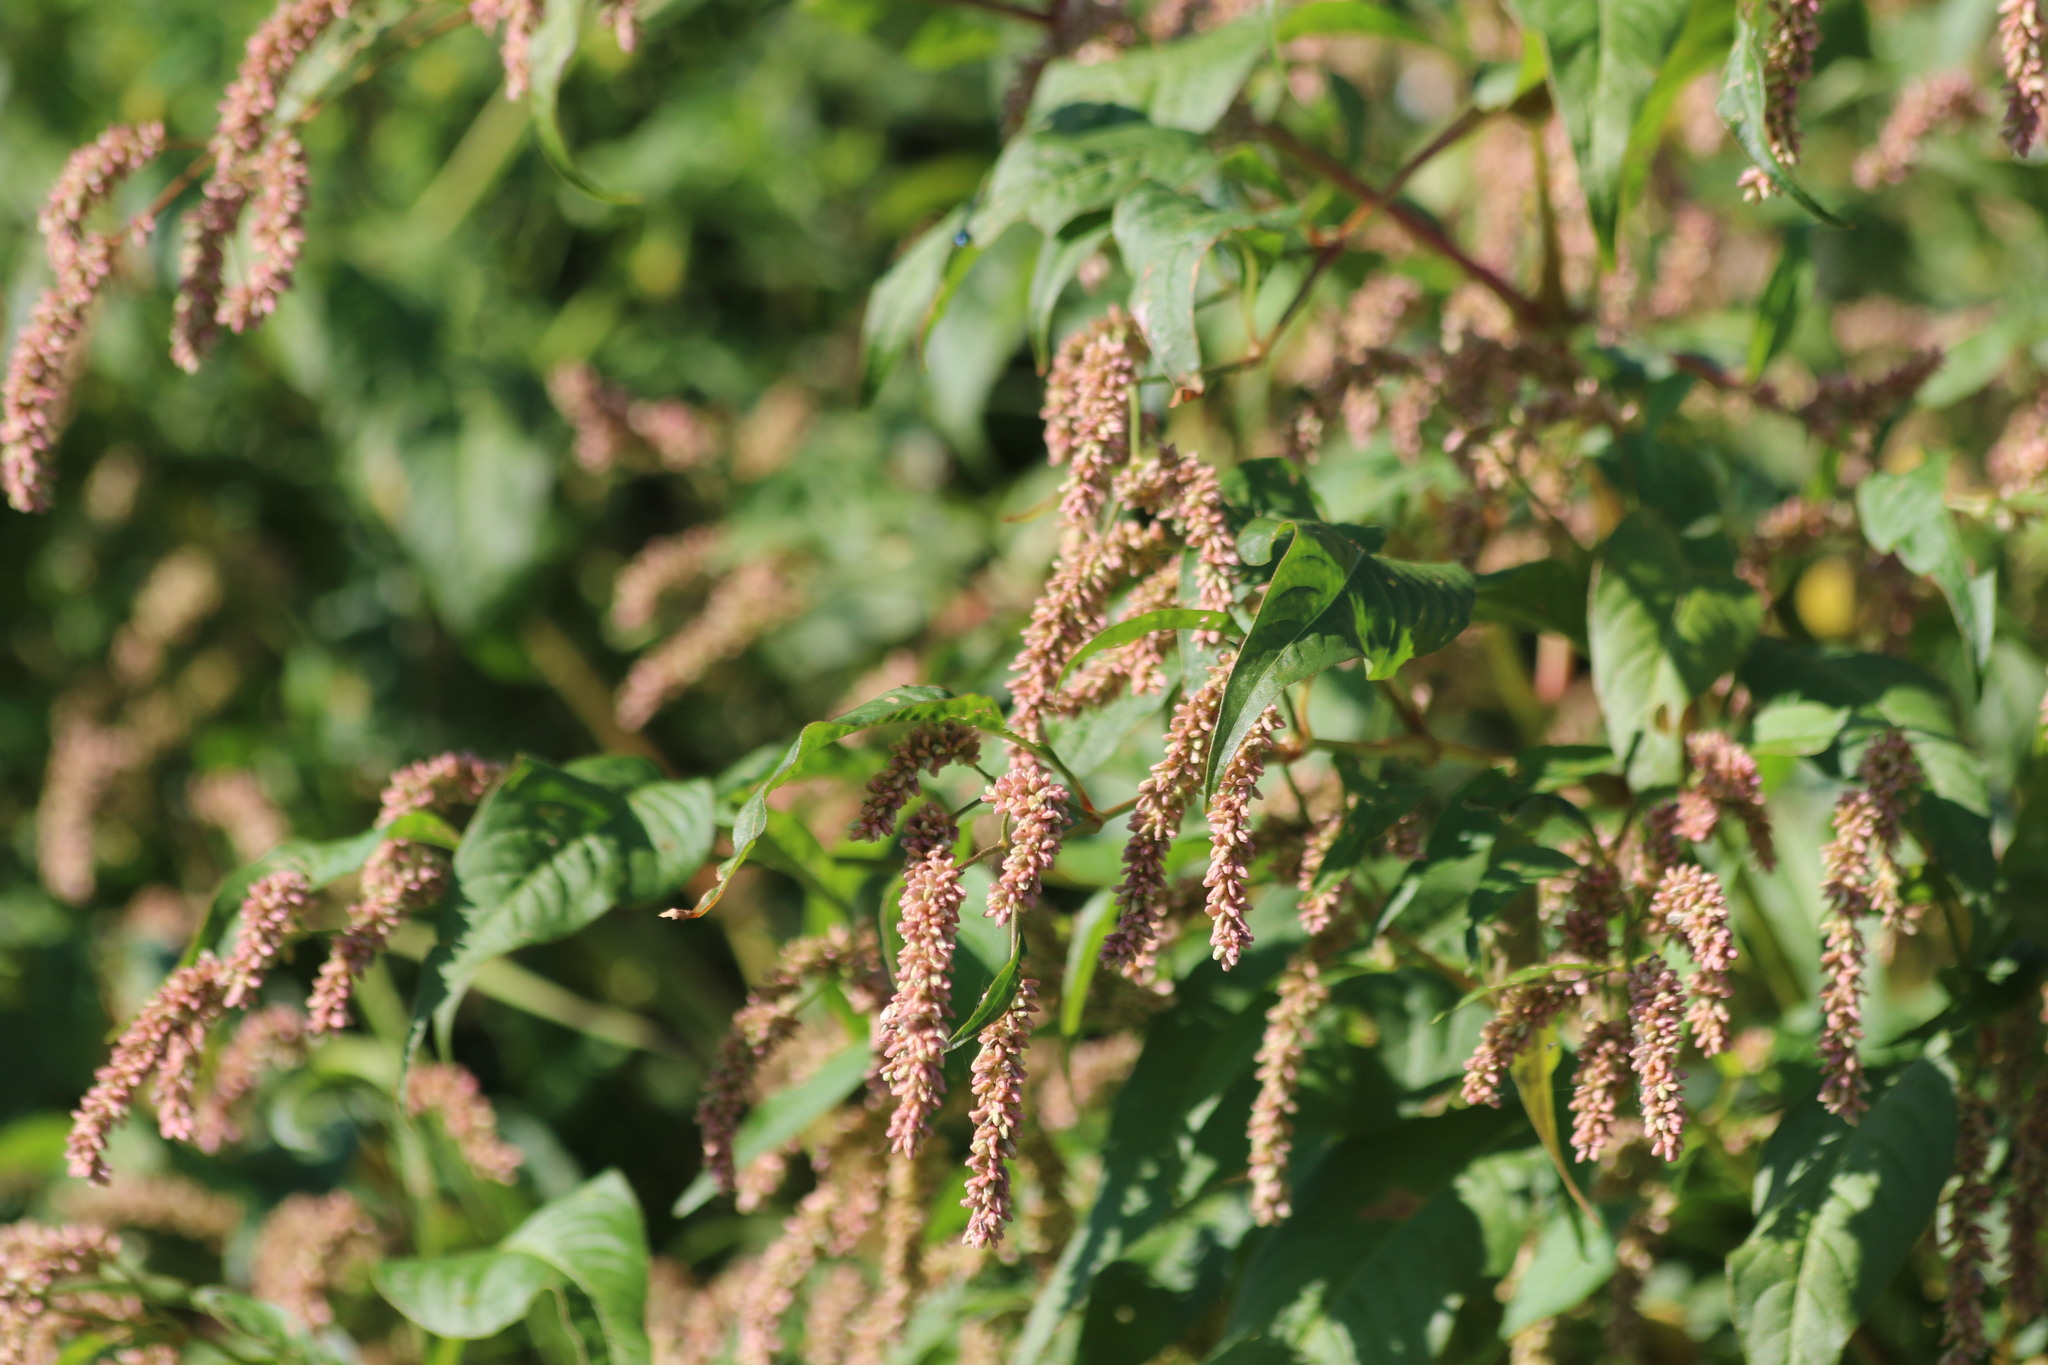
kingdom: Plantae
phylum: Tracheophyta
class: Magnoliopsida
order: Caryophyllales
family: Polygonaceae
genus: Persicaria
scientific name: Persicaria lapathifolia
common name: Curlytop knotweed
